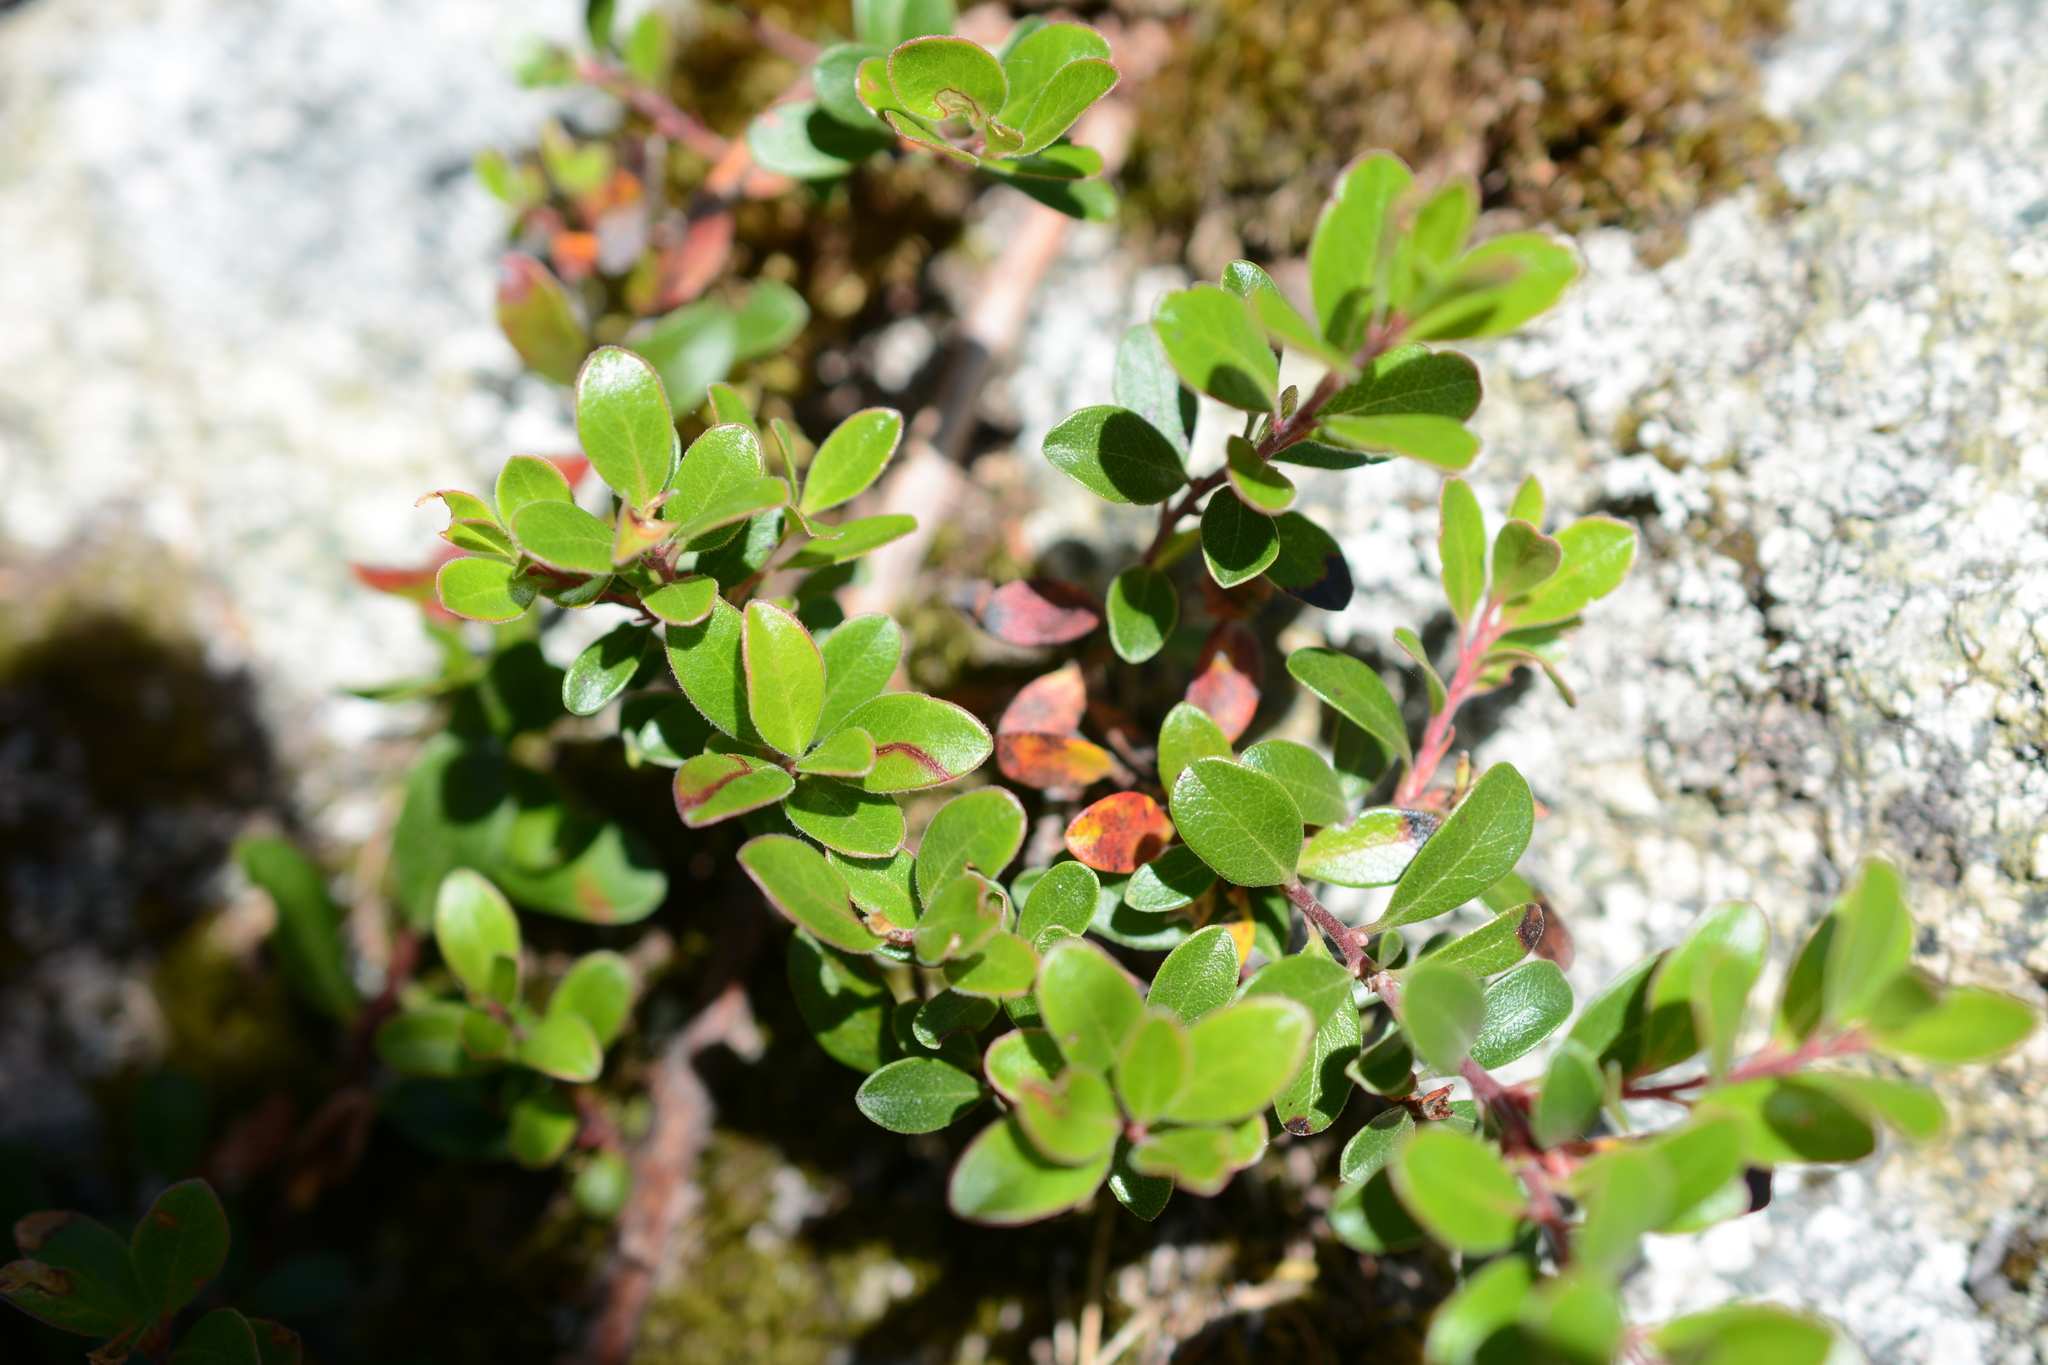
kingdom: Plantae
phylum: Tracheophyta
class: Magnoliopsida
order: Ericales
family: Ericaceae
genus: Arctostaphylos
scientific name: Arctostaphylos uva-ursi
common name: Bearberry
